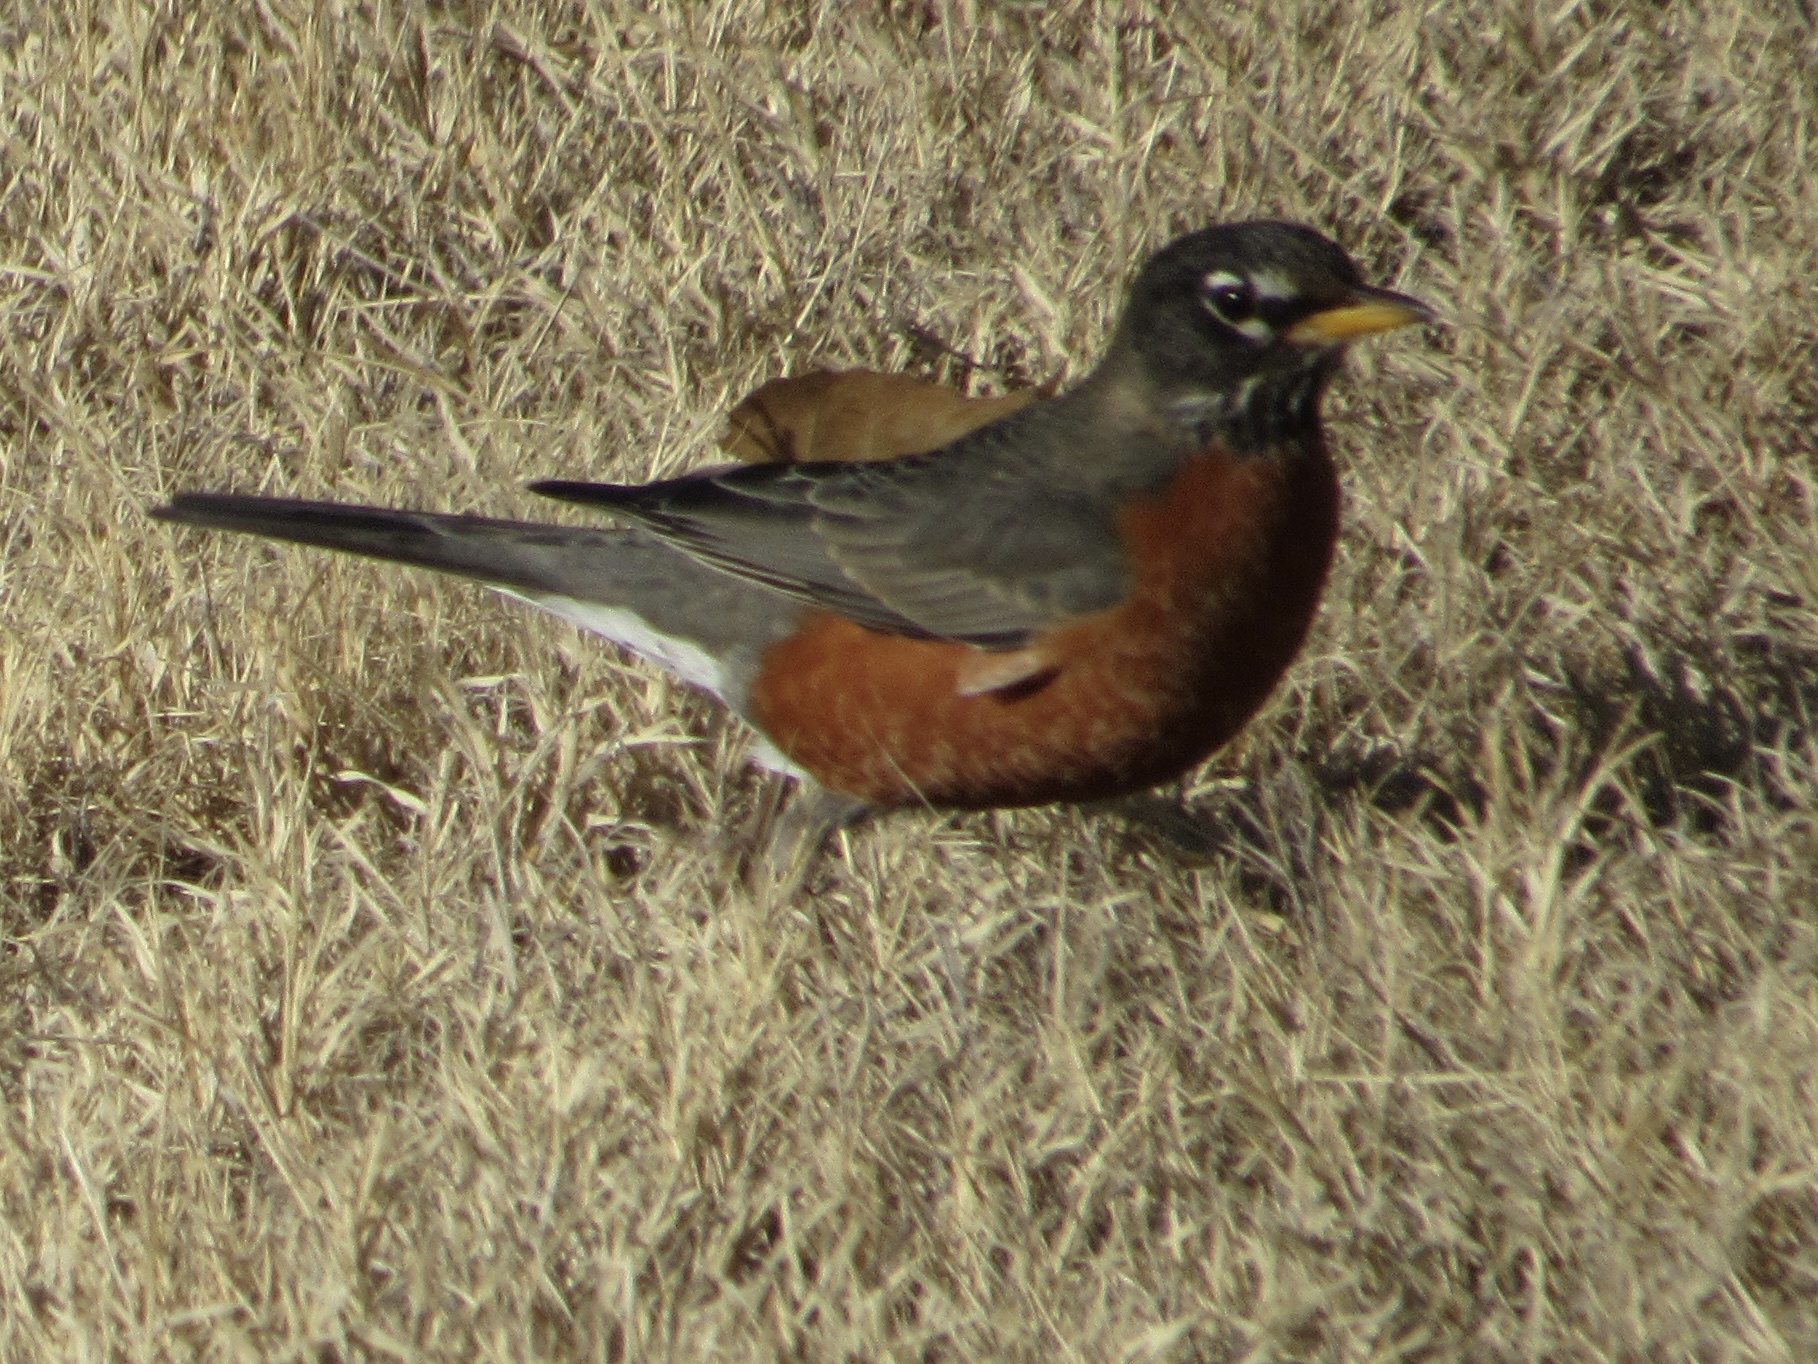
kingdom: Animalia
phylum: Chordata
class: Aves
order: Passeriformes
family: Turdidae
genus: Turdus
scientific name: Turdus migratorius
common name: American robin
